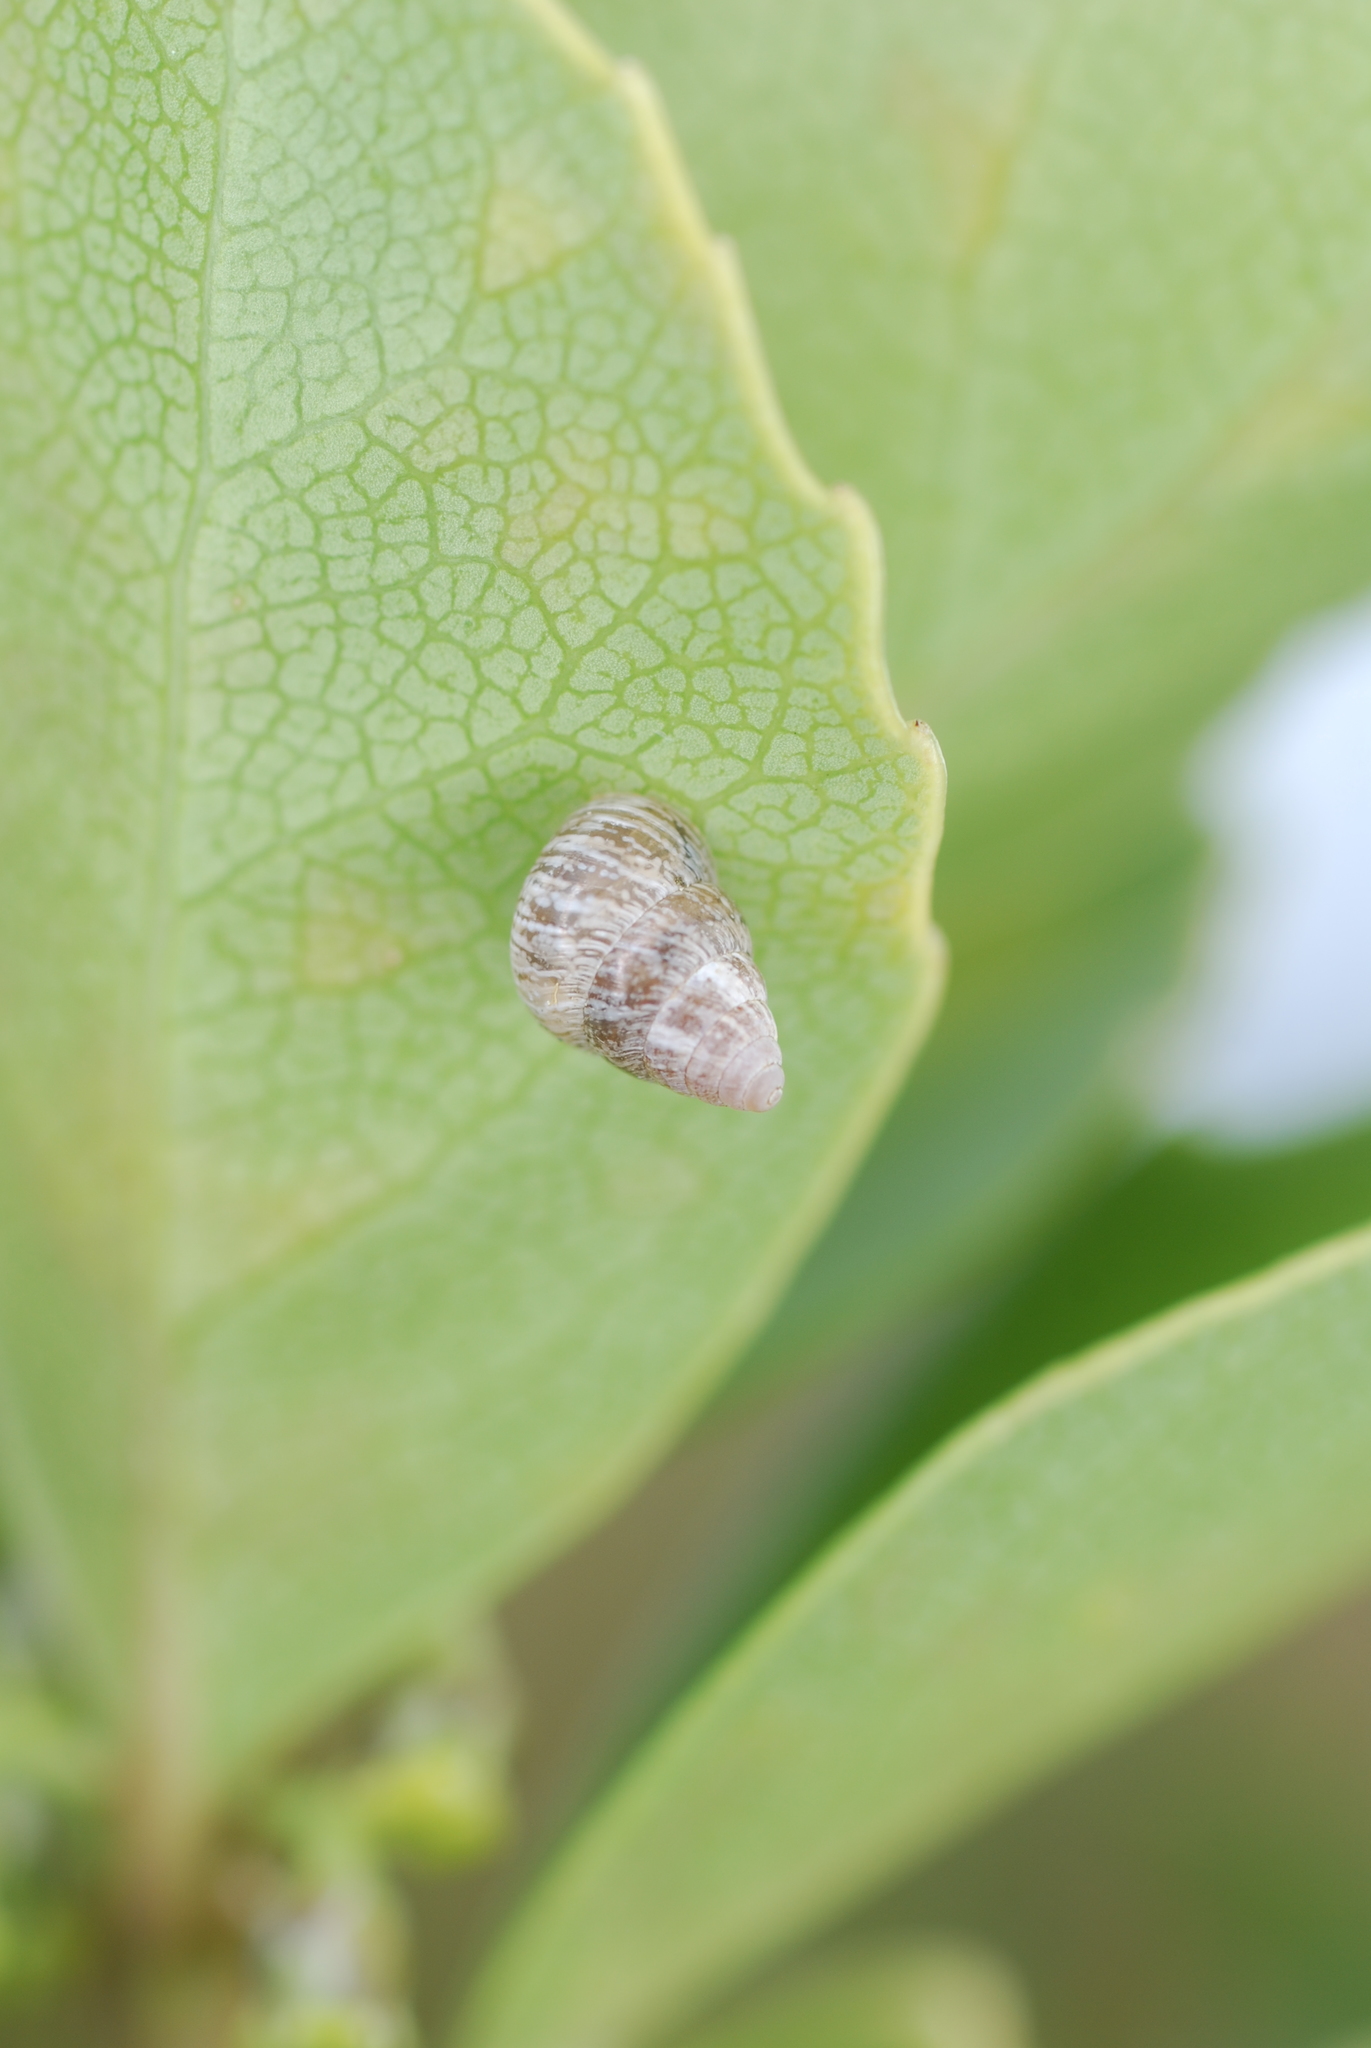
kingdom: Animalia
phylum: Mollusca
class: Gastropoda
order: Stylommatophora
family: Geomitridae
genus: Cochlicella
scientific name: Cochlicella barbara
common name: Potbellied helicellid
